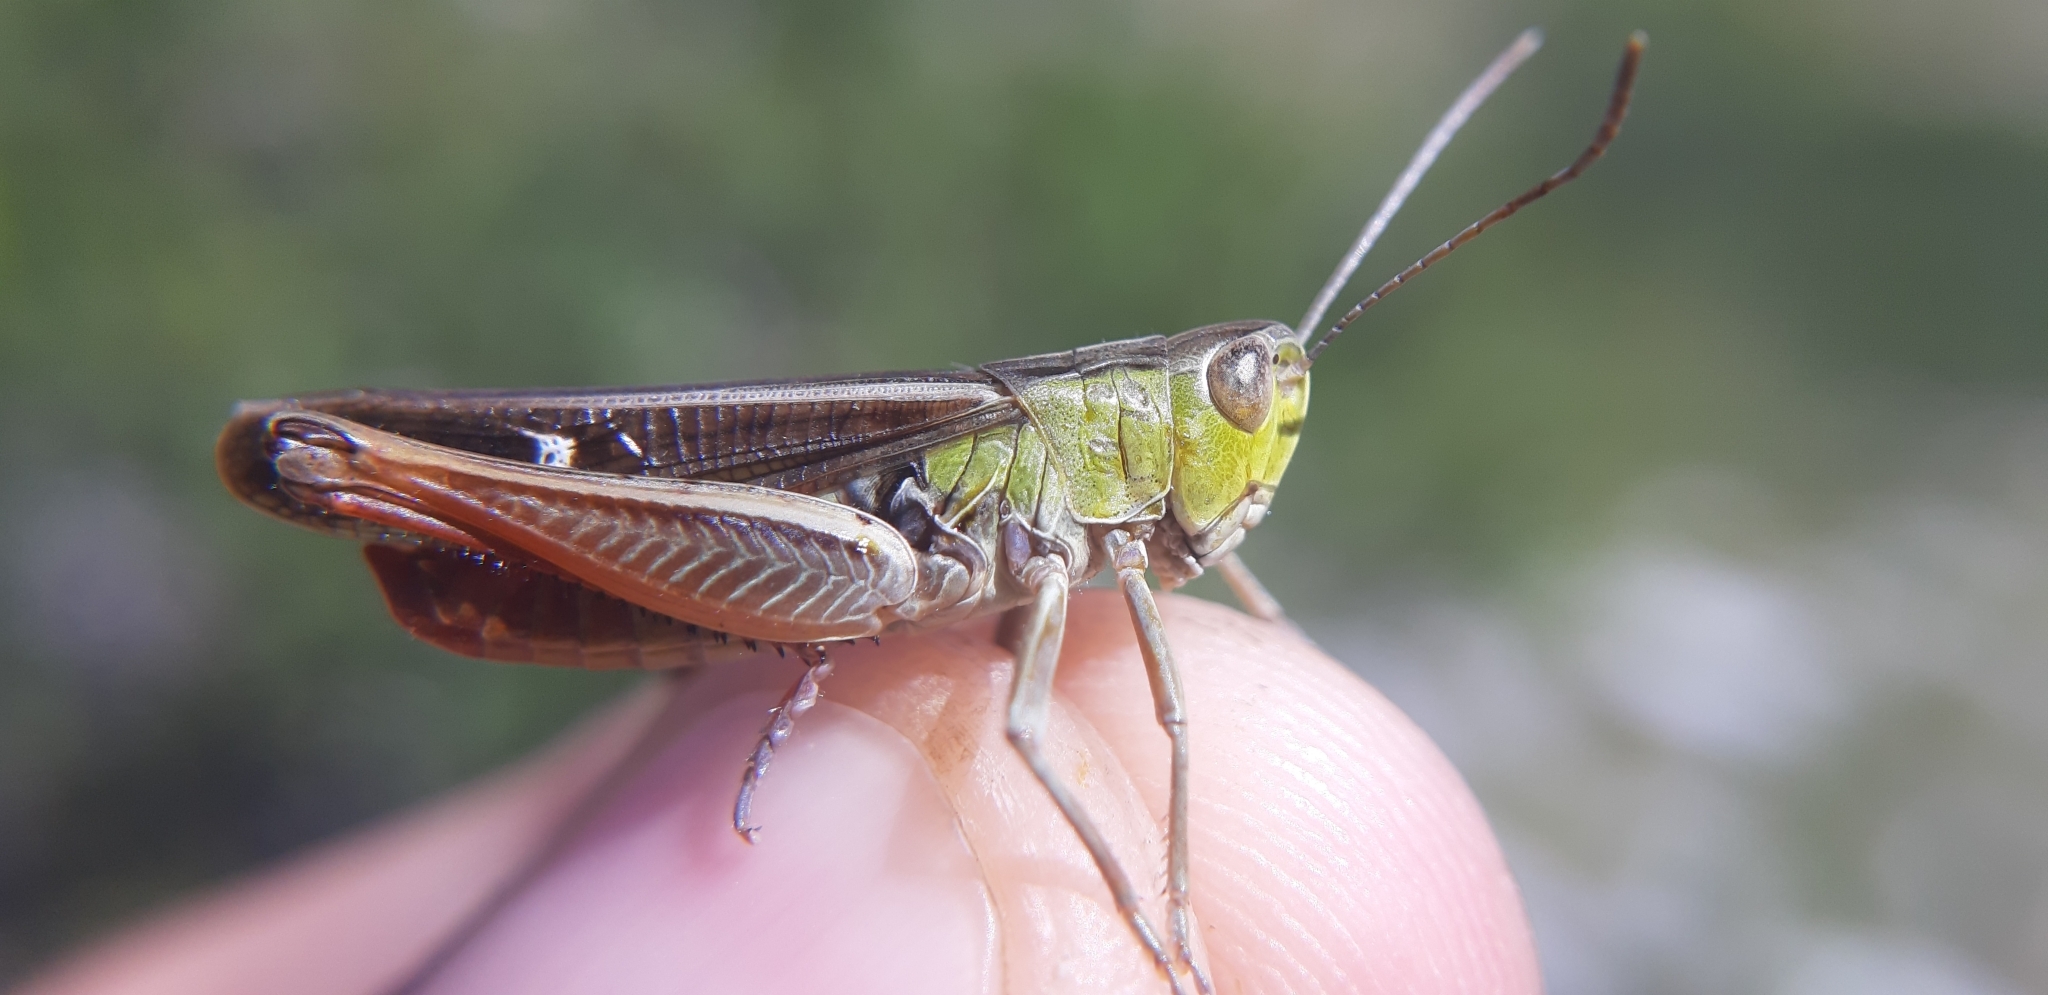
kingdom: Animalia
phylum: Arthropoda
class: Insecta
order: Orthoptera
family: Acrididae
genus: Stenobothrus
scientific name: Stenobothrus lineatus
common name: Stripe-winged grasshopper
